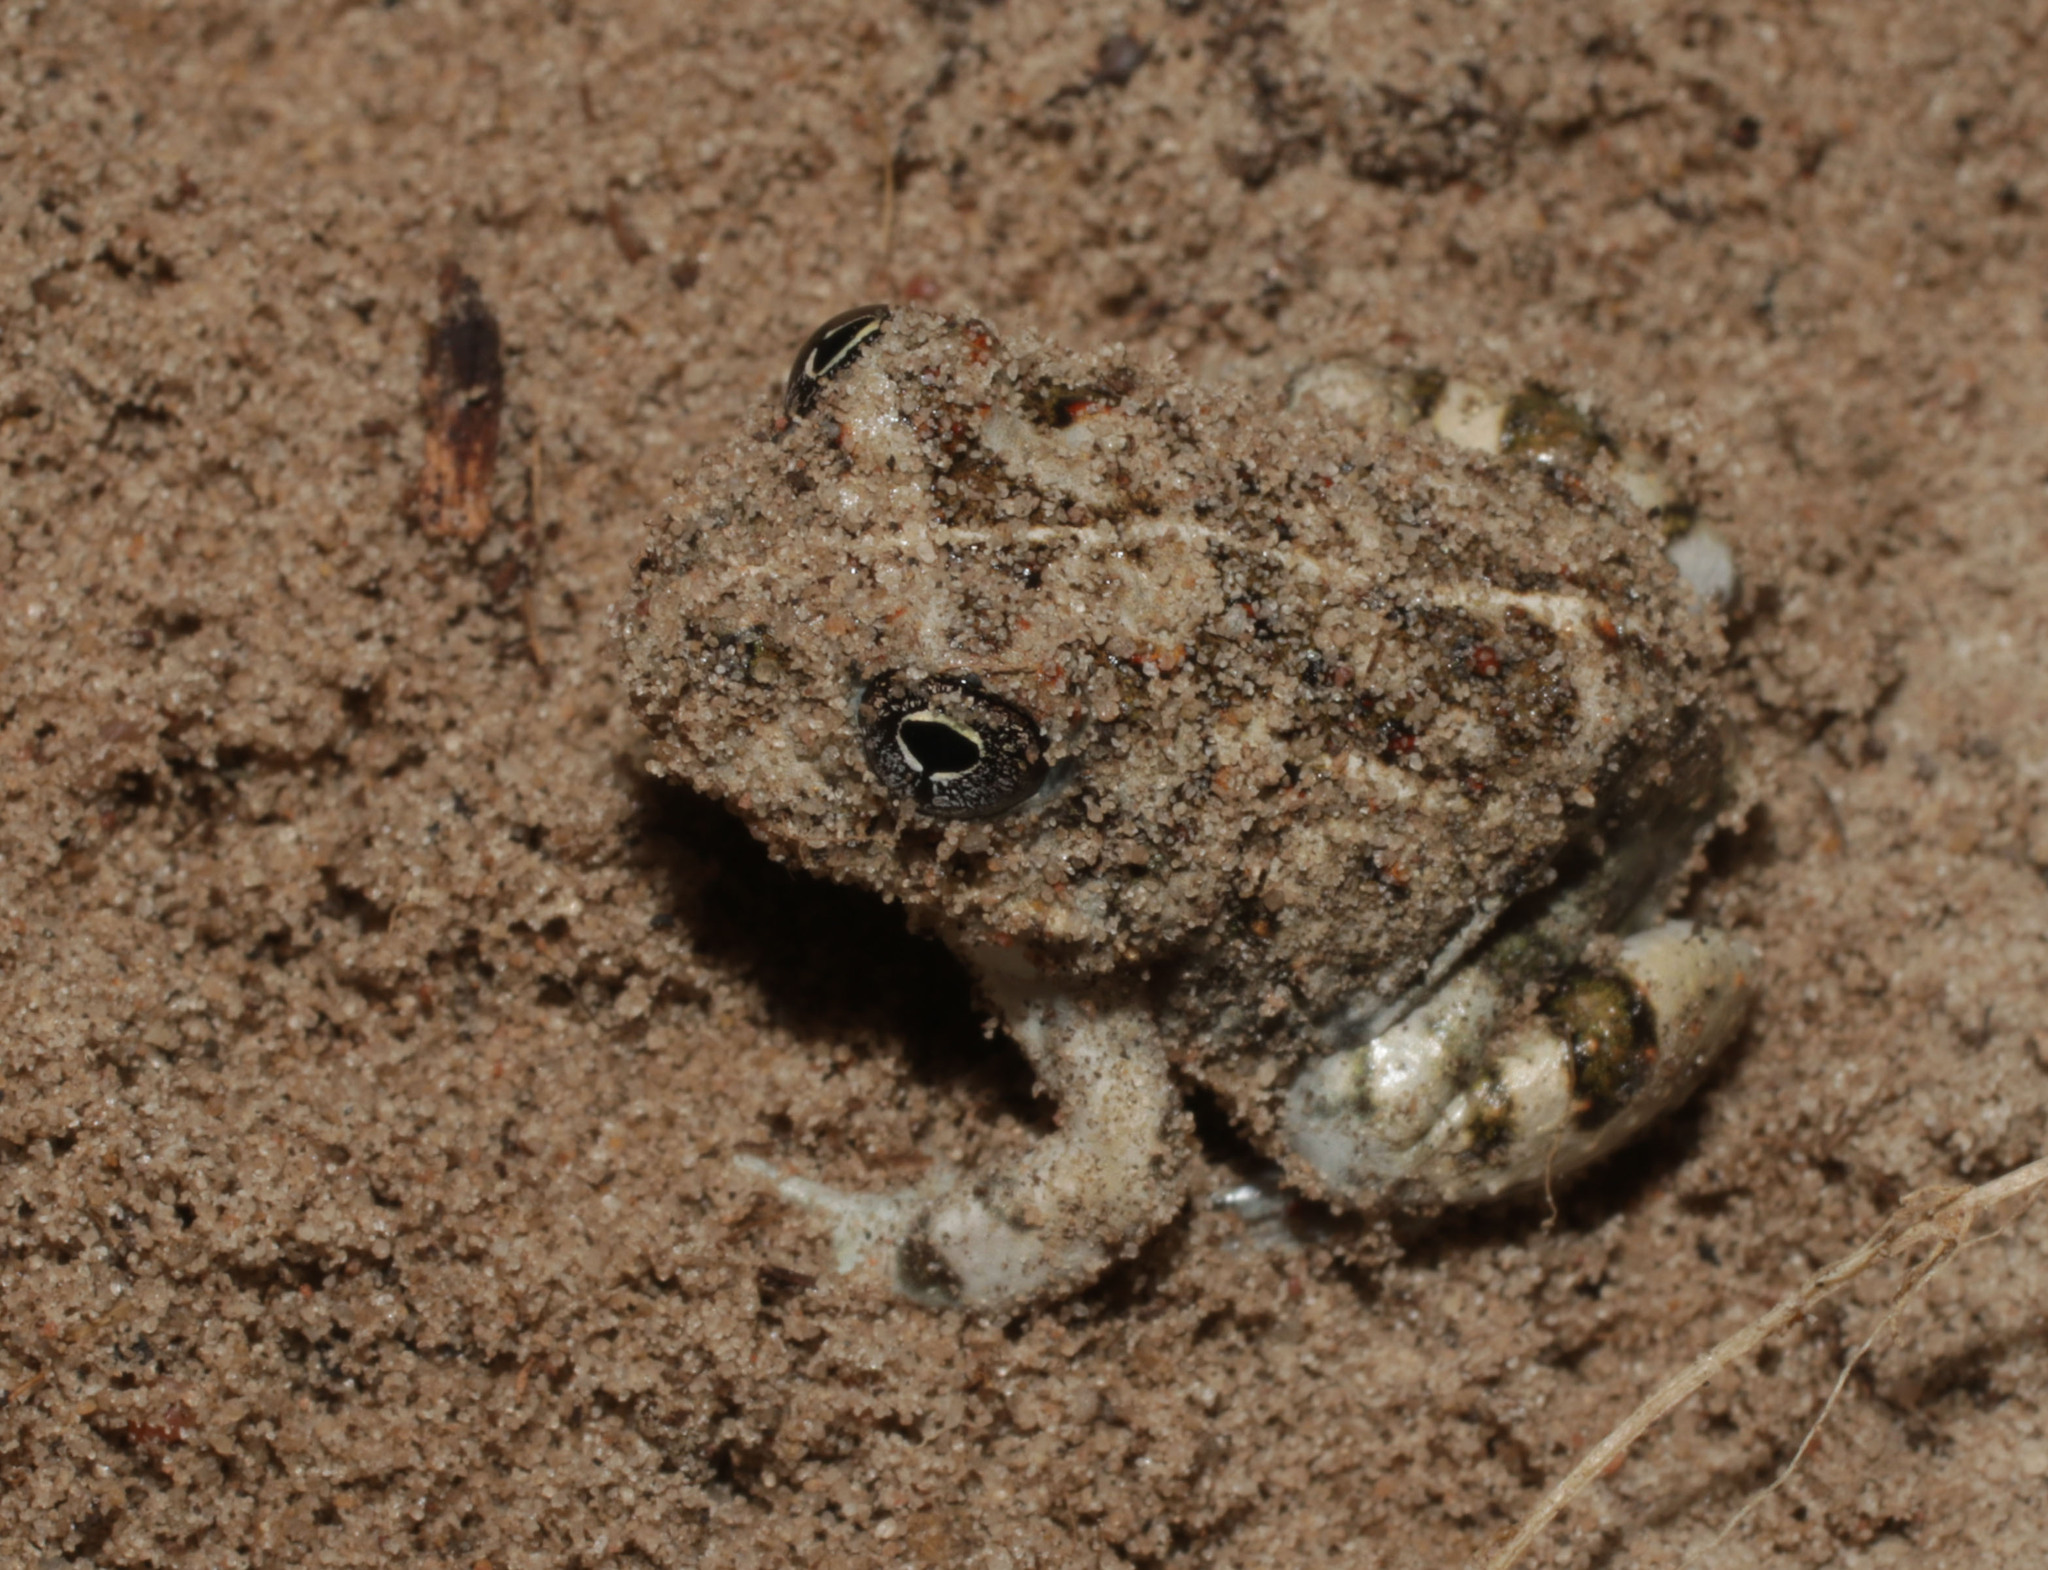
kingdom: Animalia
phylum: Chordata
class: Amphibia
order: Anura
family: Pyxicephalidae
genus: Tomopterna
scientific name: Tomopterna delalandii
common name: Delalande's burrowing bullfrog
